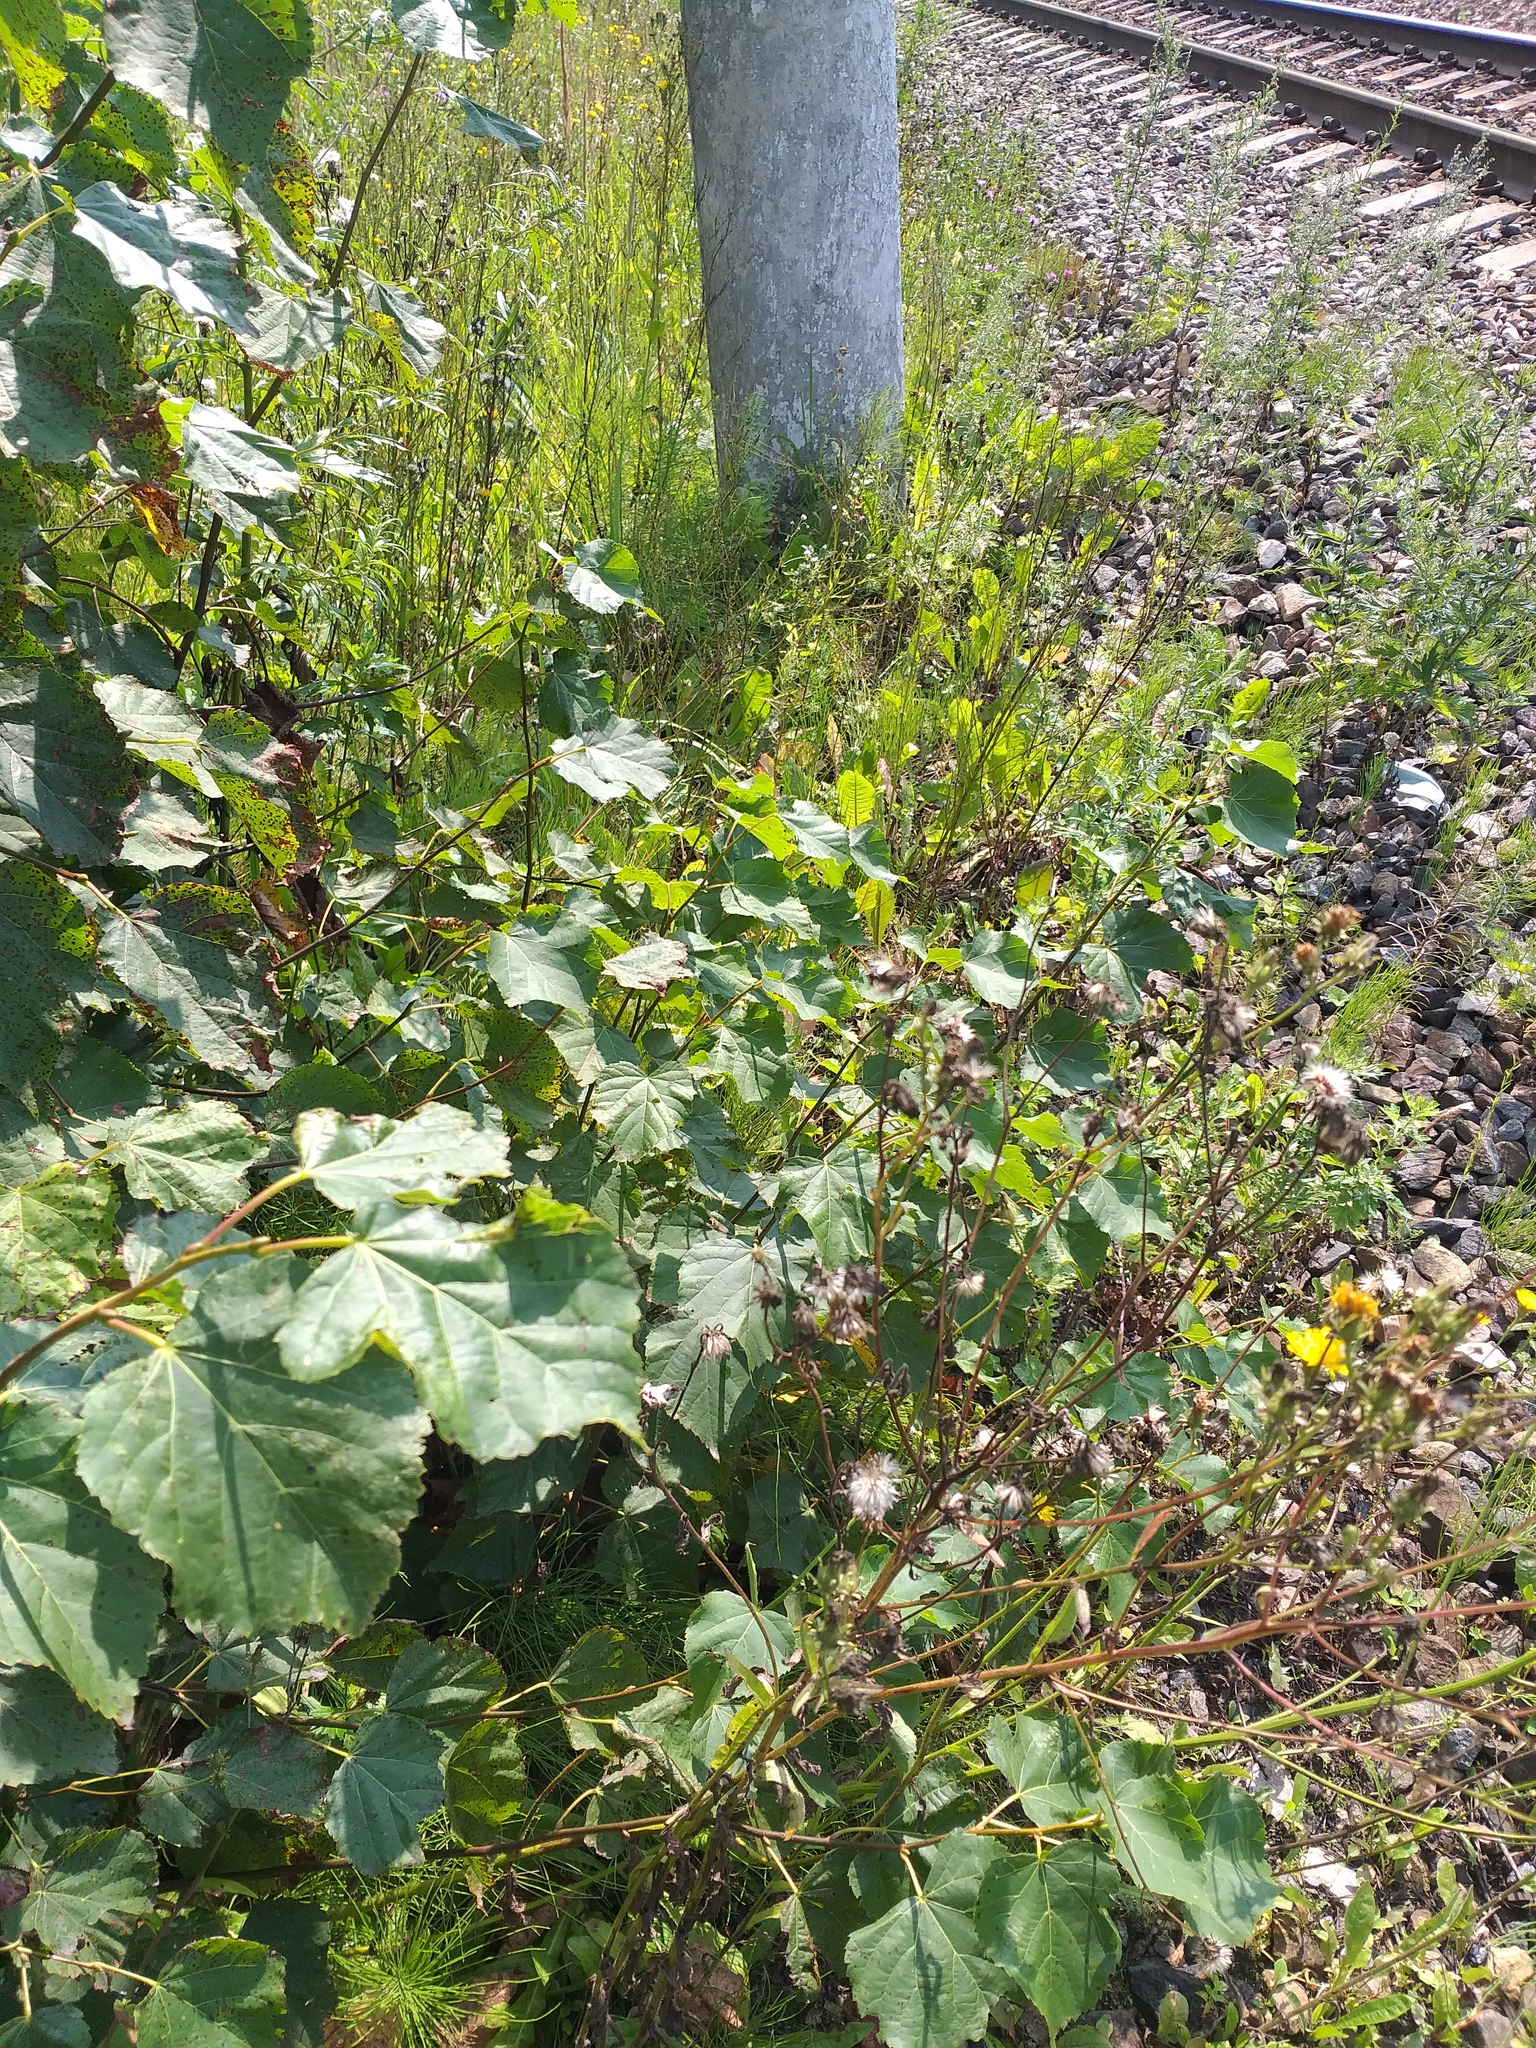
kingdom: Plantae
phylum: Tracheophyta
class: Magnoliopsida
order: Malvales
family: Malvaceae
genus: Tilia
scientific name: Tilia cordata
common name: Small-leaved lime
